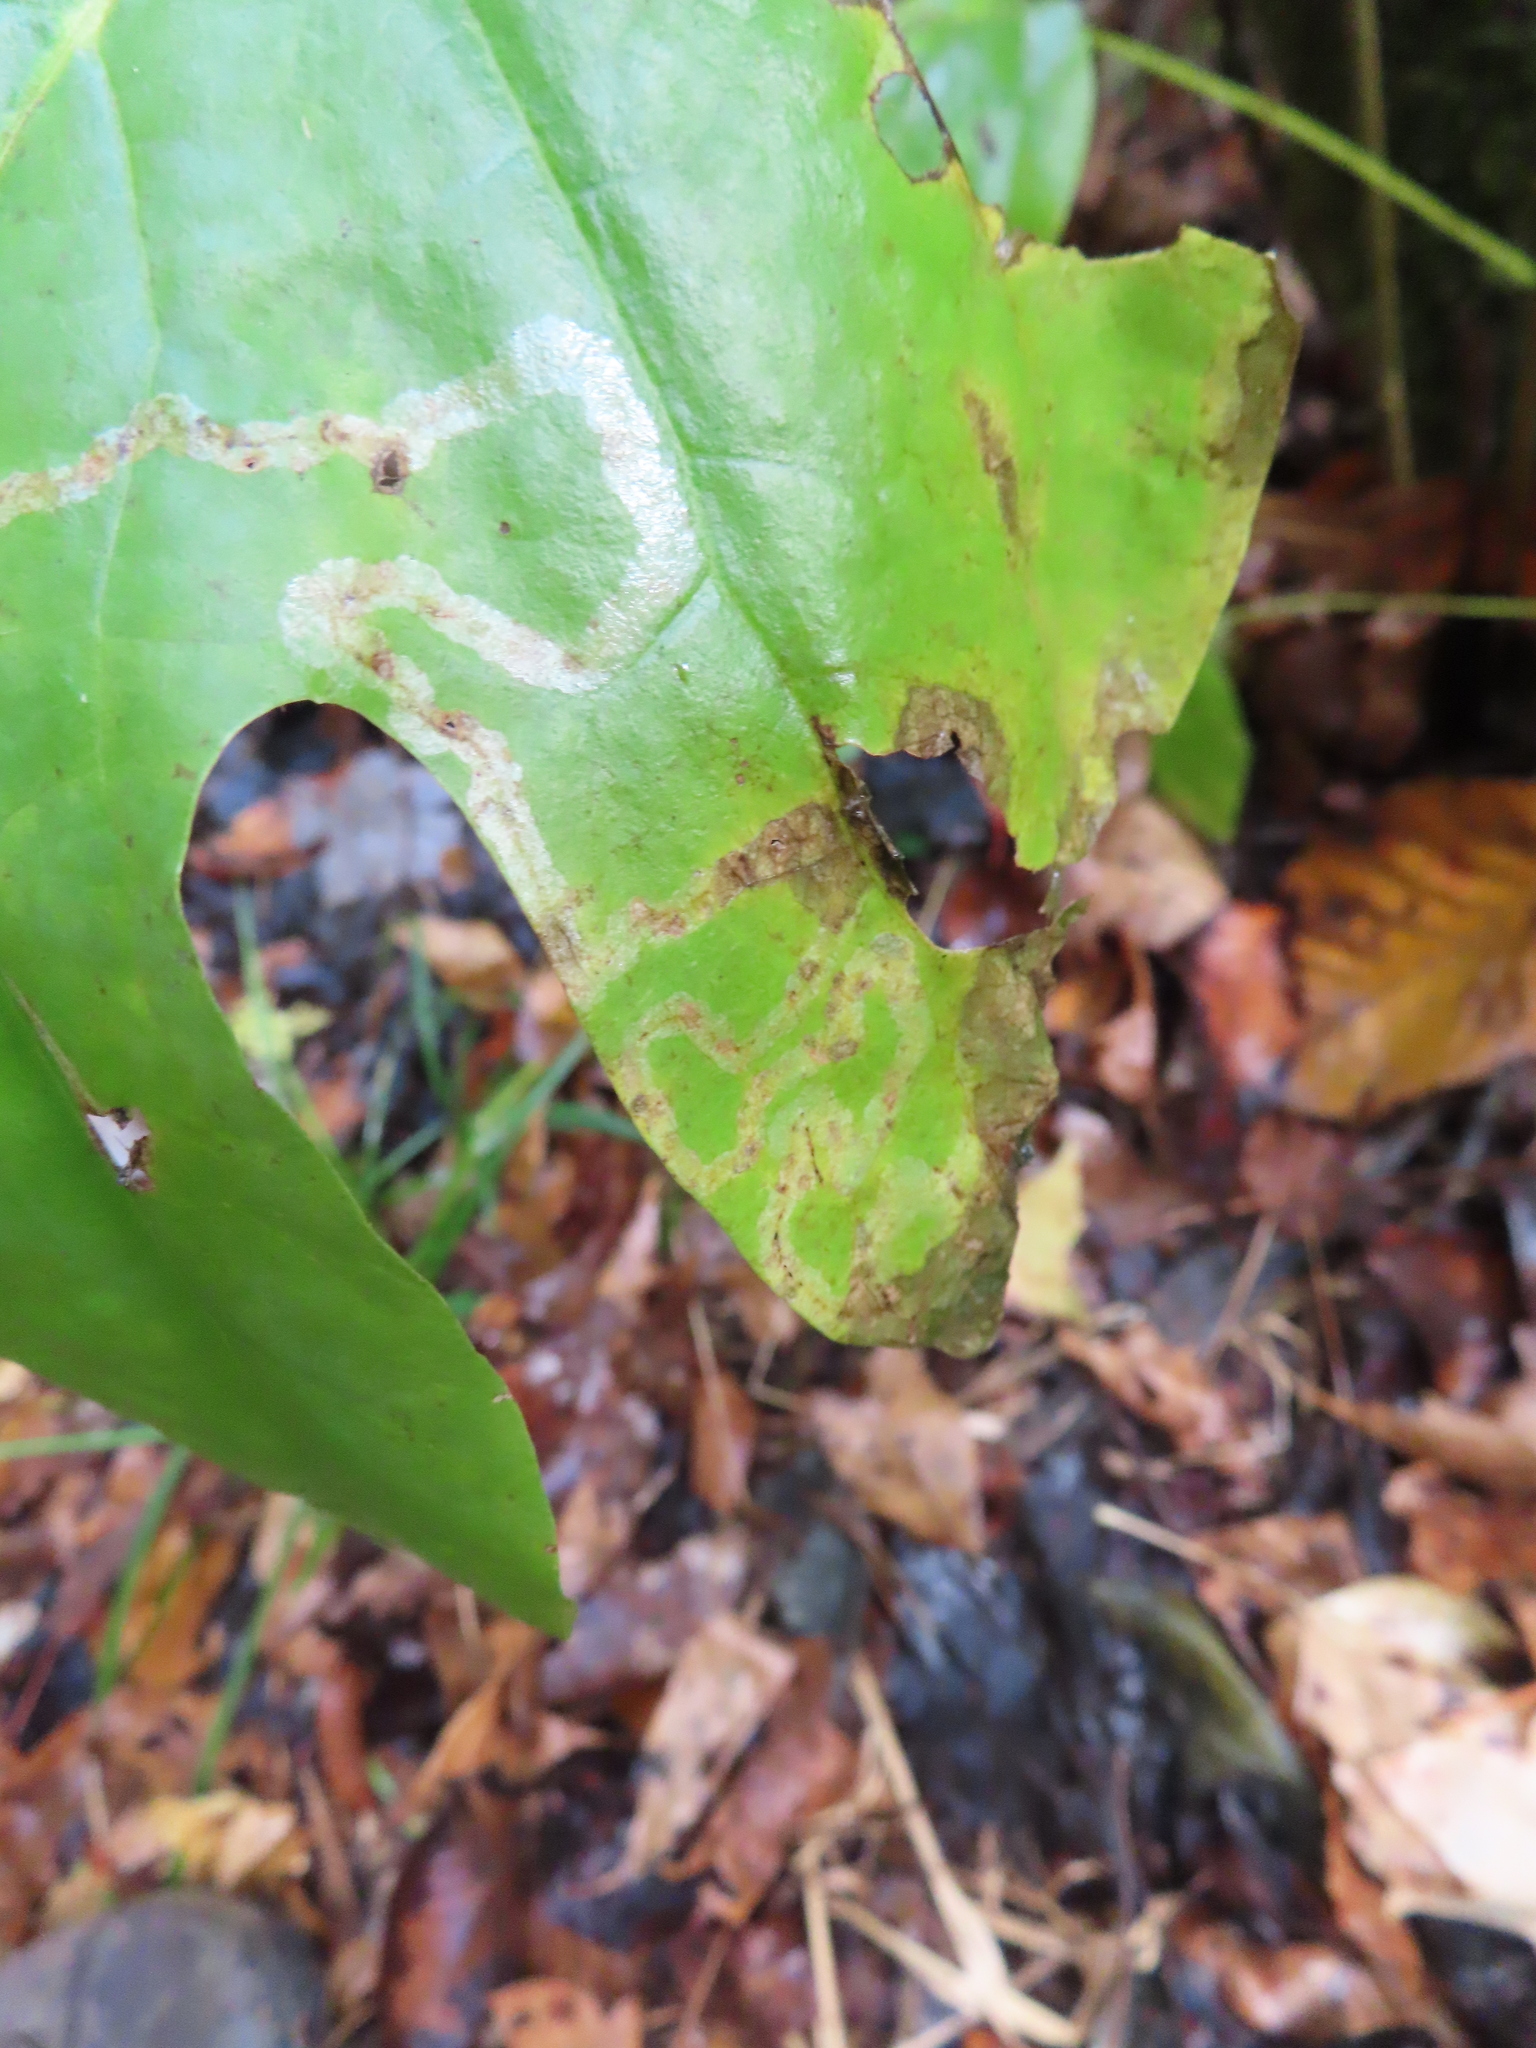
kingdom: Animalia
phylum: Arthropoda
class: Insecta
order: Lepidoptera
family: Gracillariidae
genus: Phyllocnistis
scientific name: Phyllocnistis liriodendronella
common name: Tulip tree leaf miner
